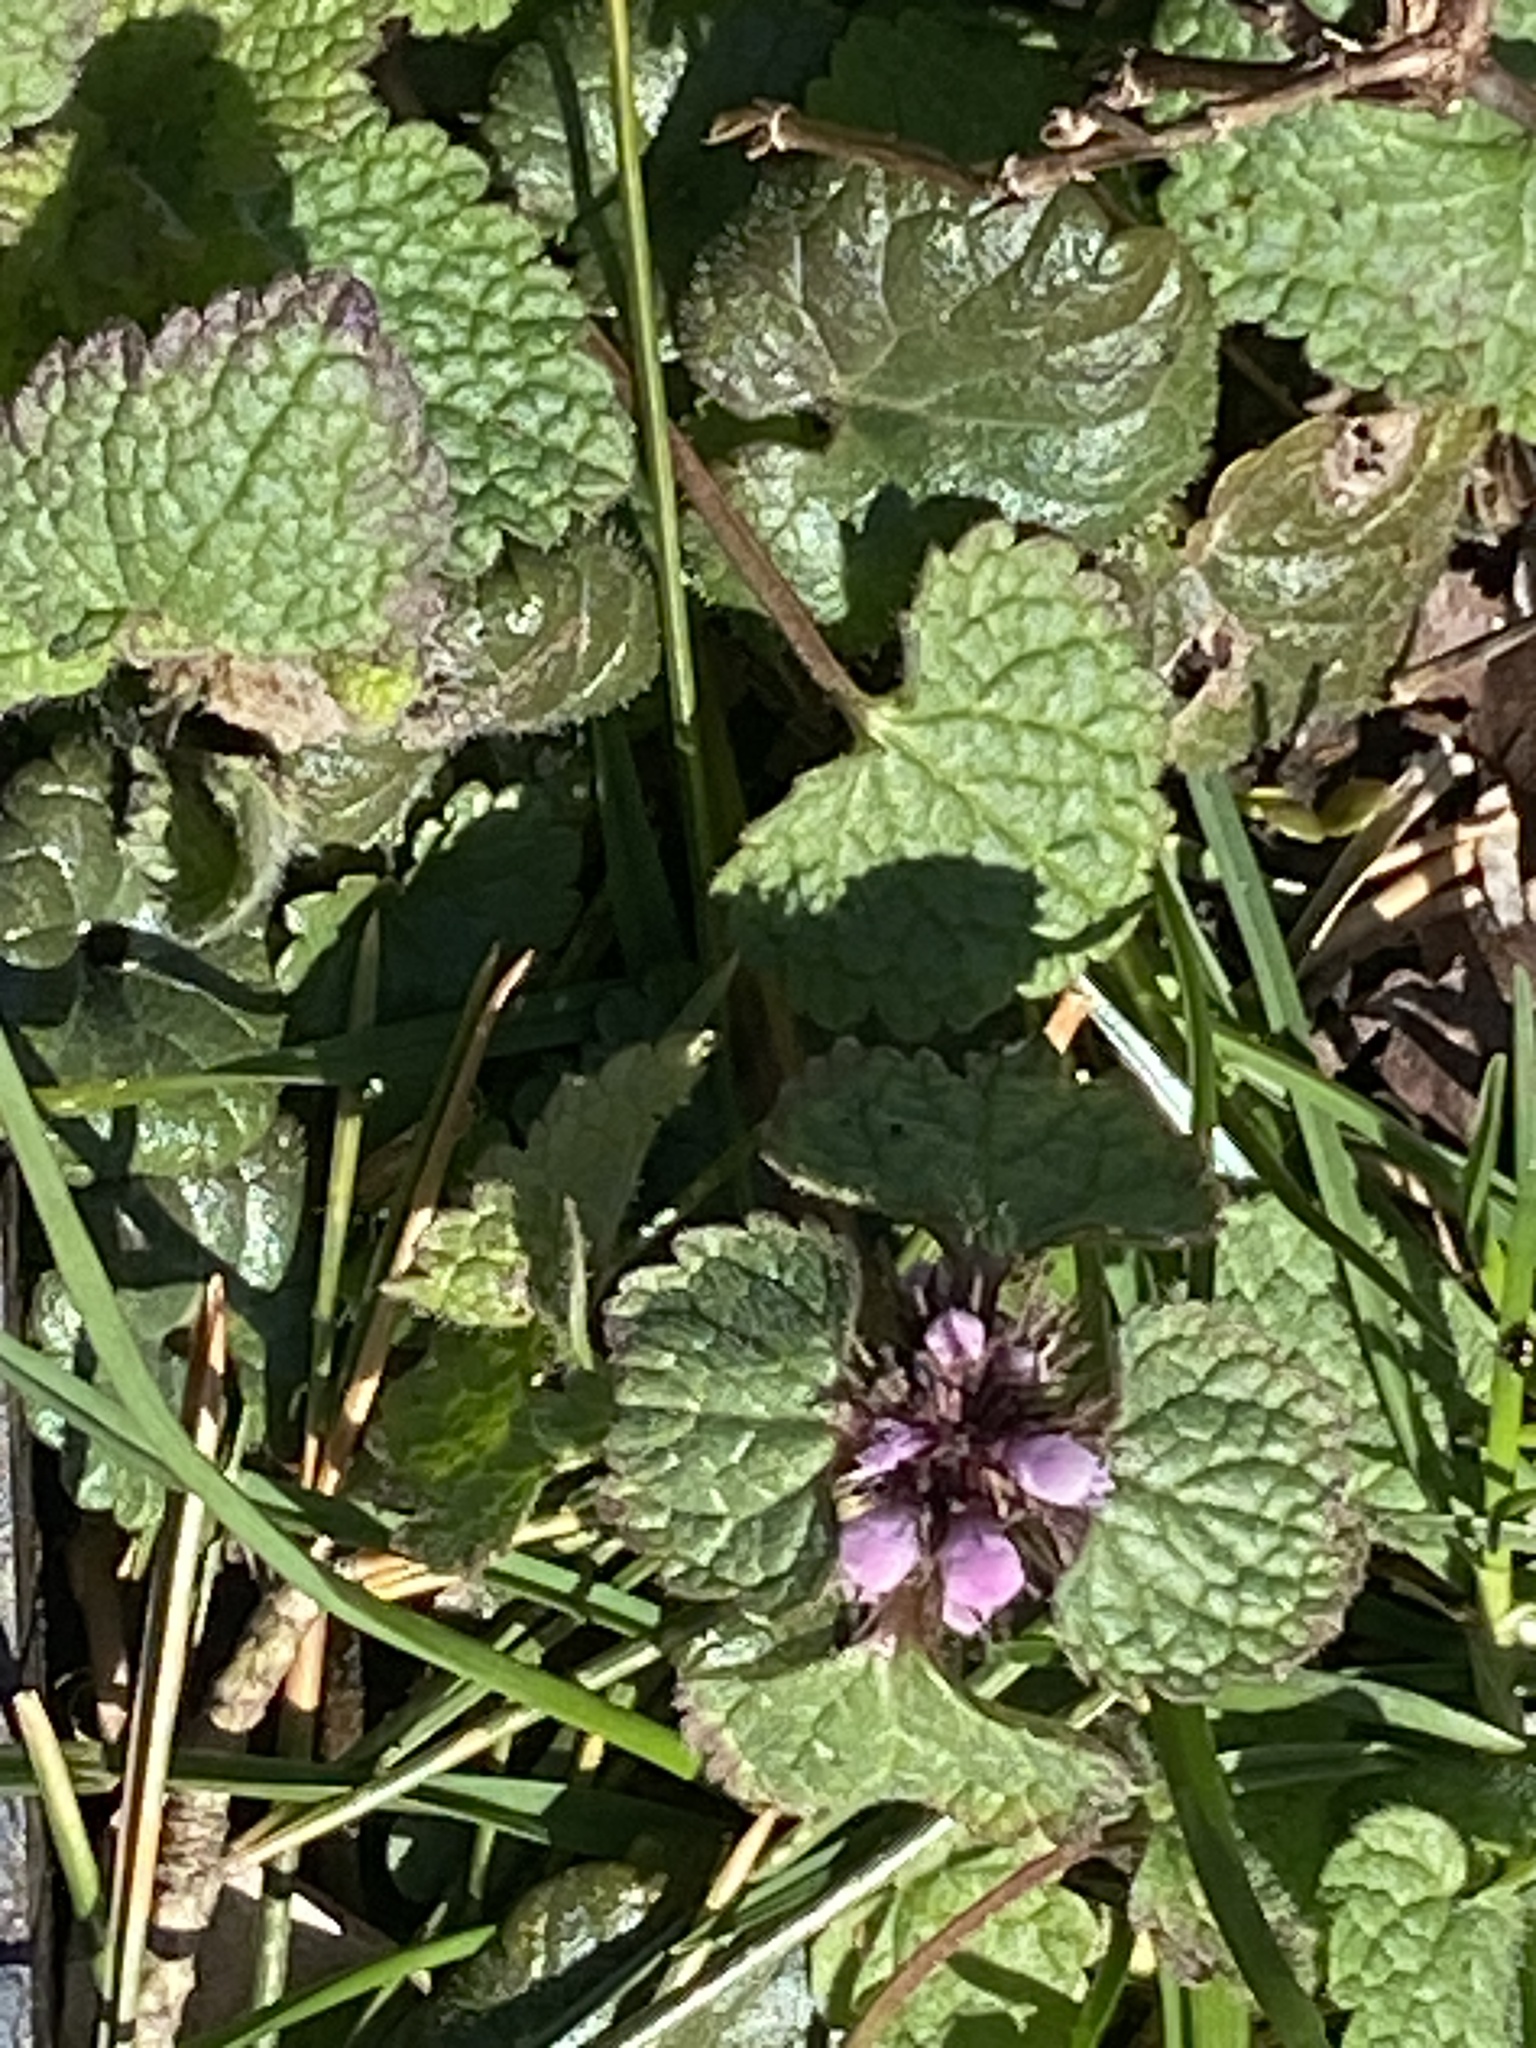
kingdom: Plantae
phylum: Tracheophyta
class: Magnoliopsida
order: Lamiales
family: Lamiaceae
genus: Lamium
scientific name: Lamium purpureum
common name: Red dead-nettle
